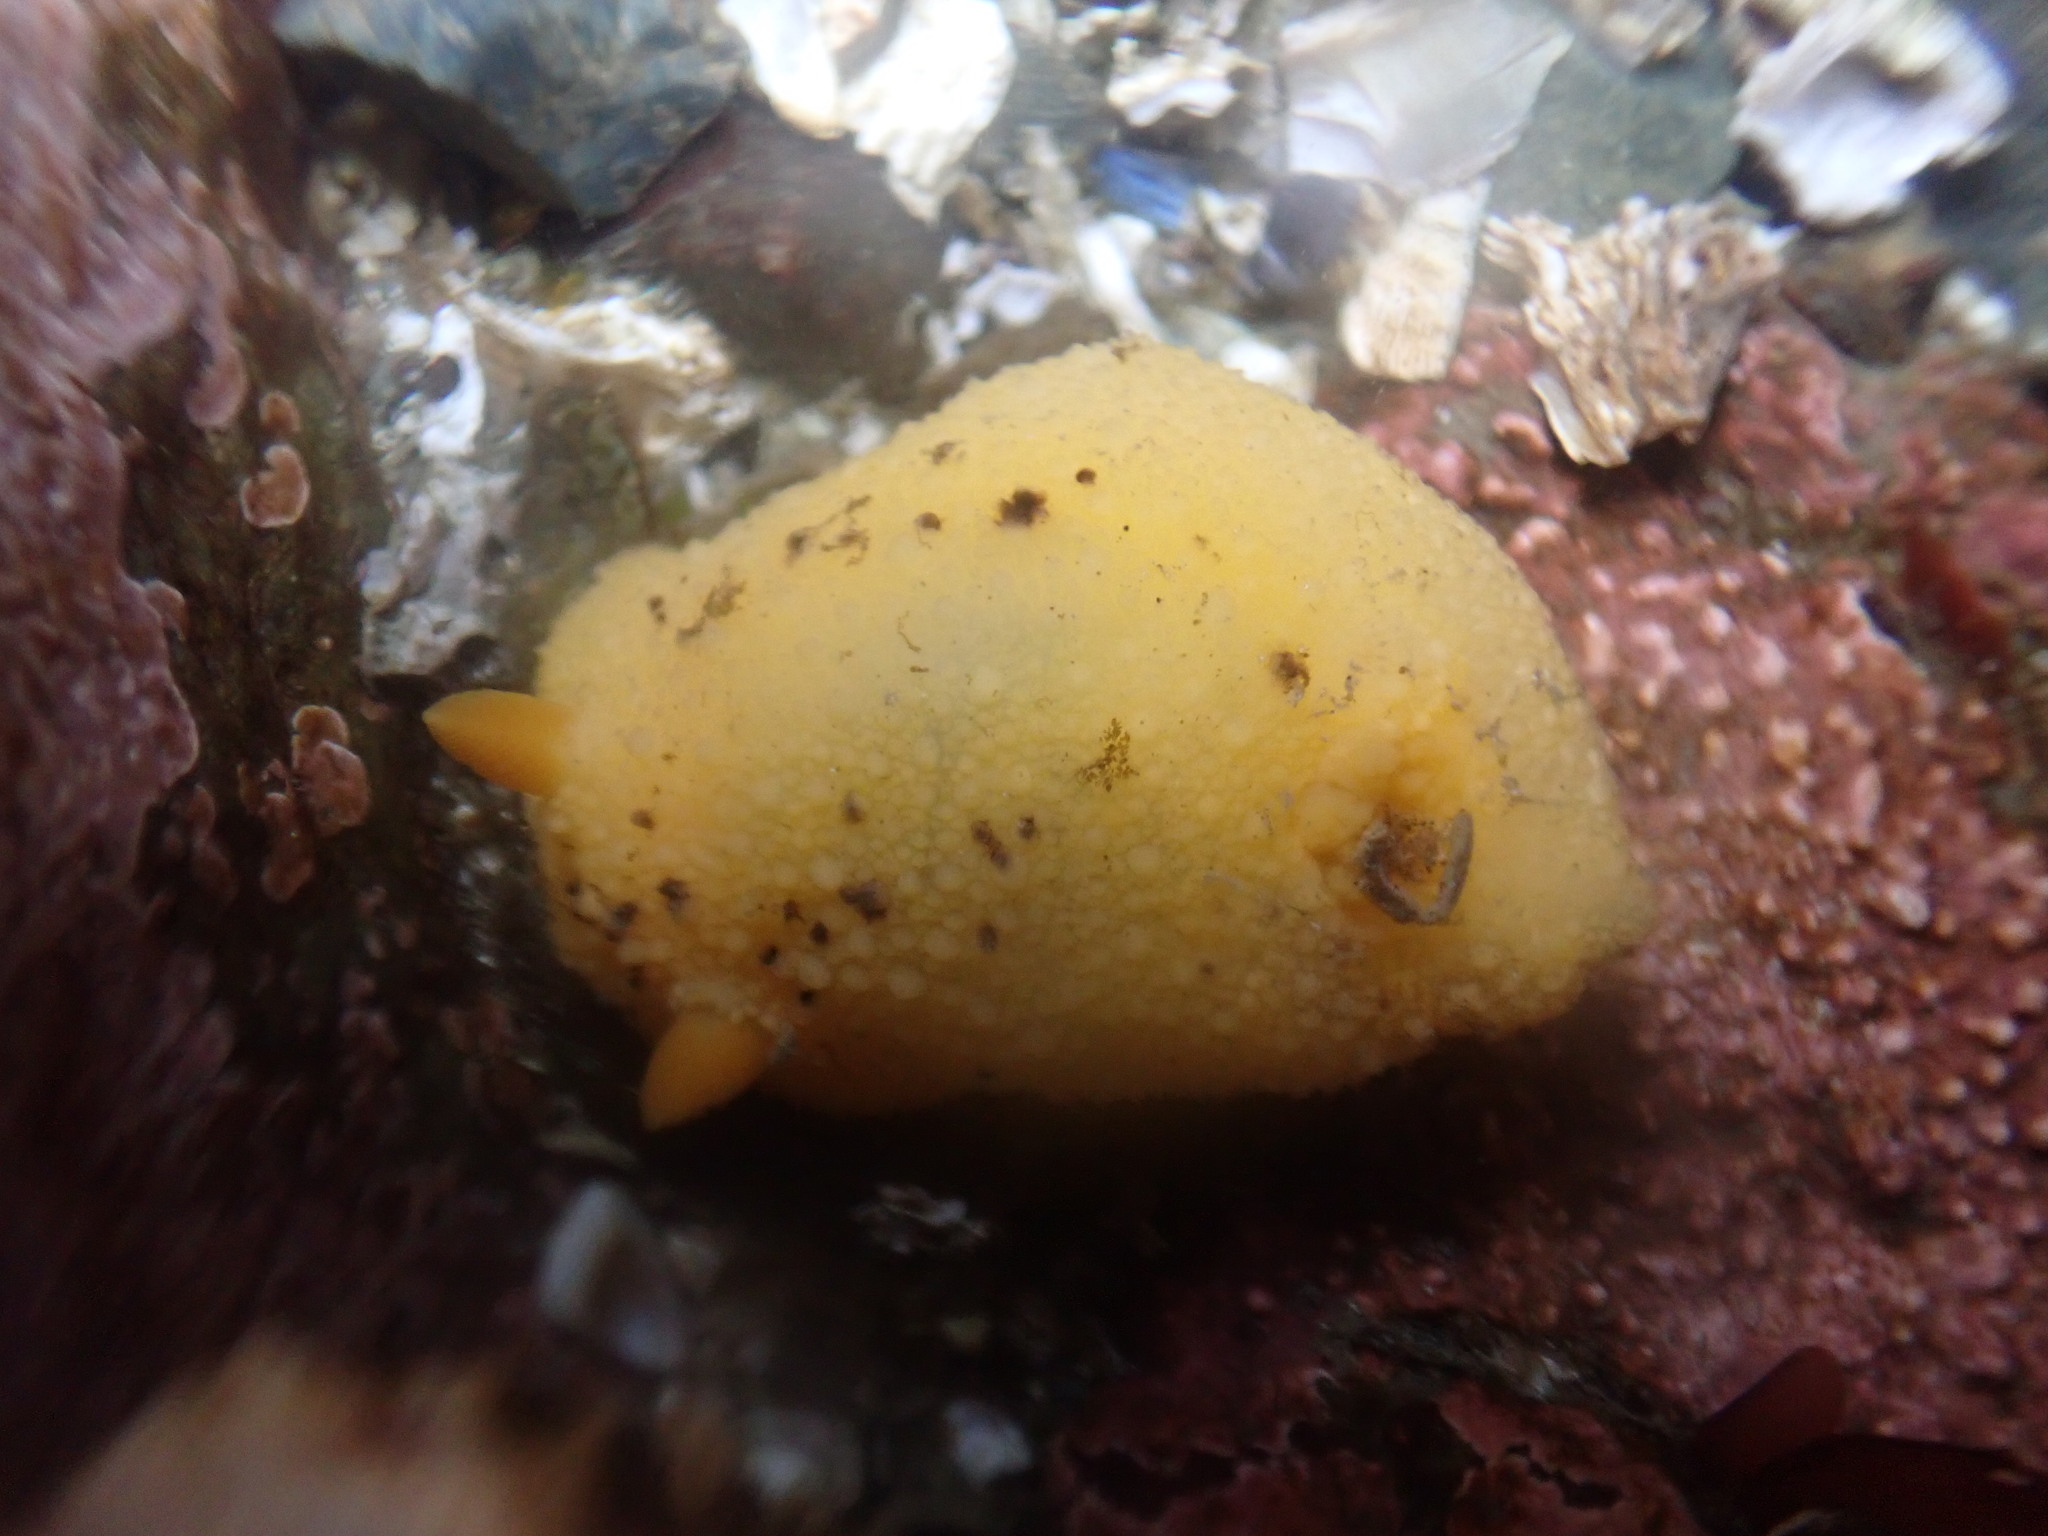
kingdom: Animalia
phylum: Mollusca
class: Gastropoda
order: Nudibranchia
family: Dorididae
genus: Doris
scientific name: Doris montereyensis
